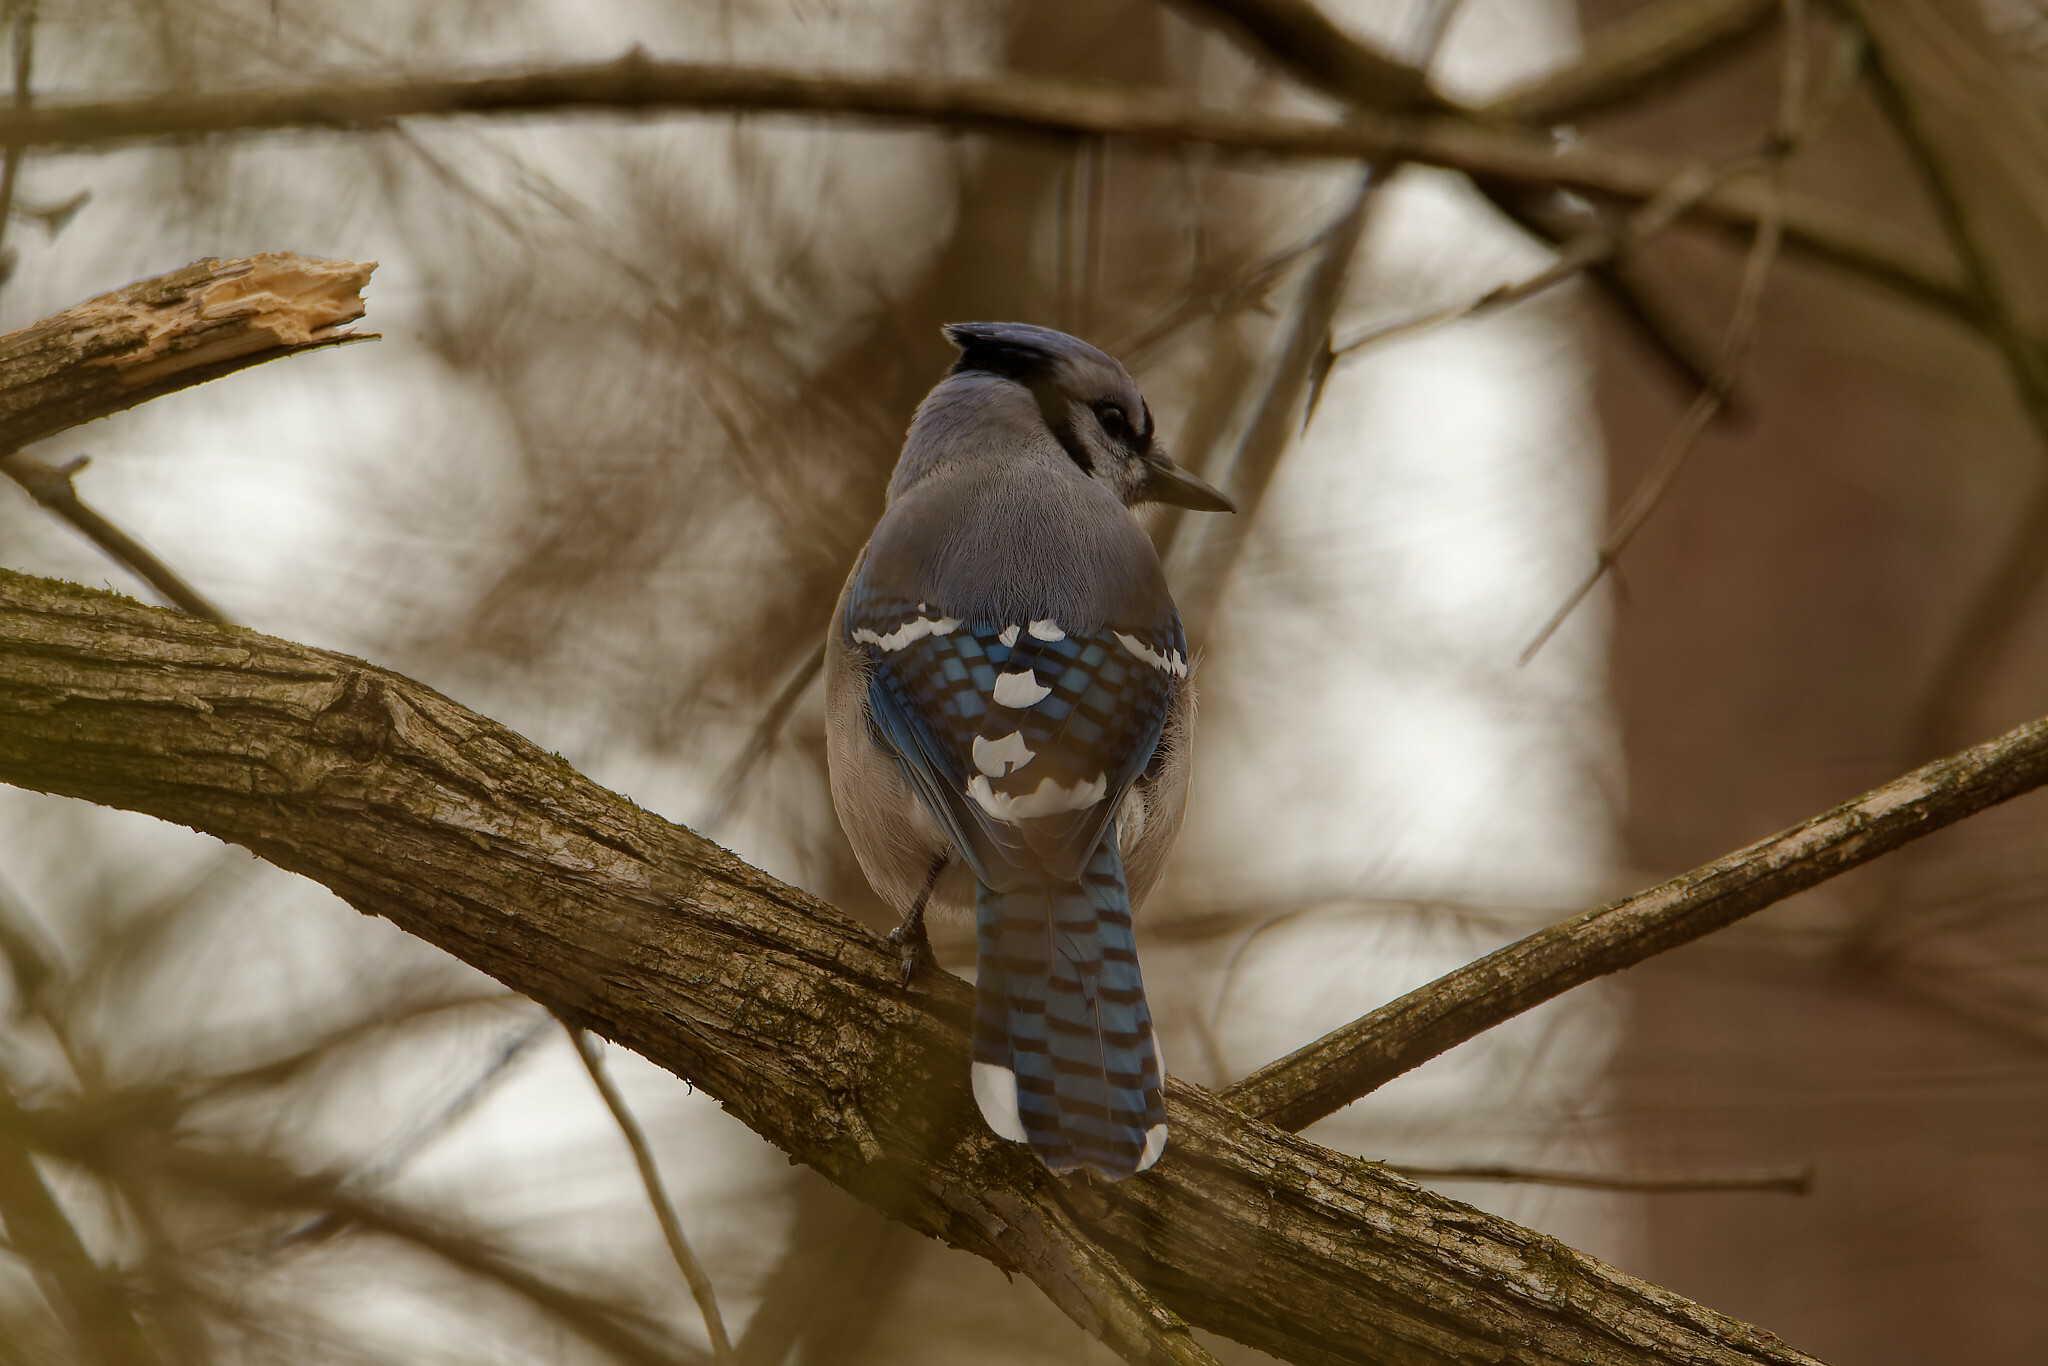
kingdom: Animalia
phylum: Chordata
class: Aves
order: Passeriformes
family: Corvidae
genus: Cyanocitta
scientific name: Cyanocitta cristata
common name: Blue jay
